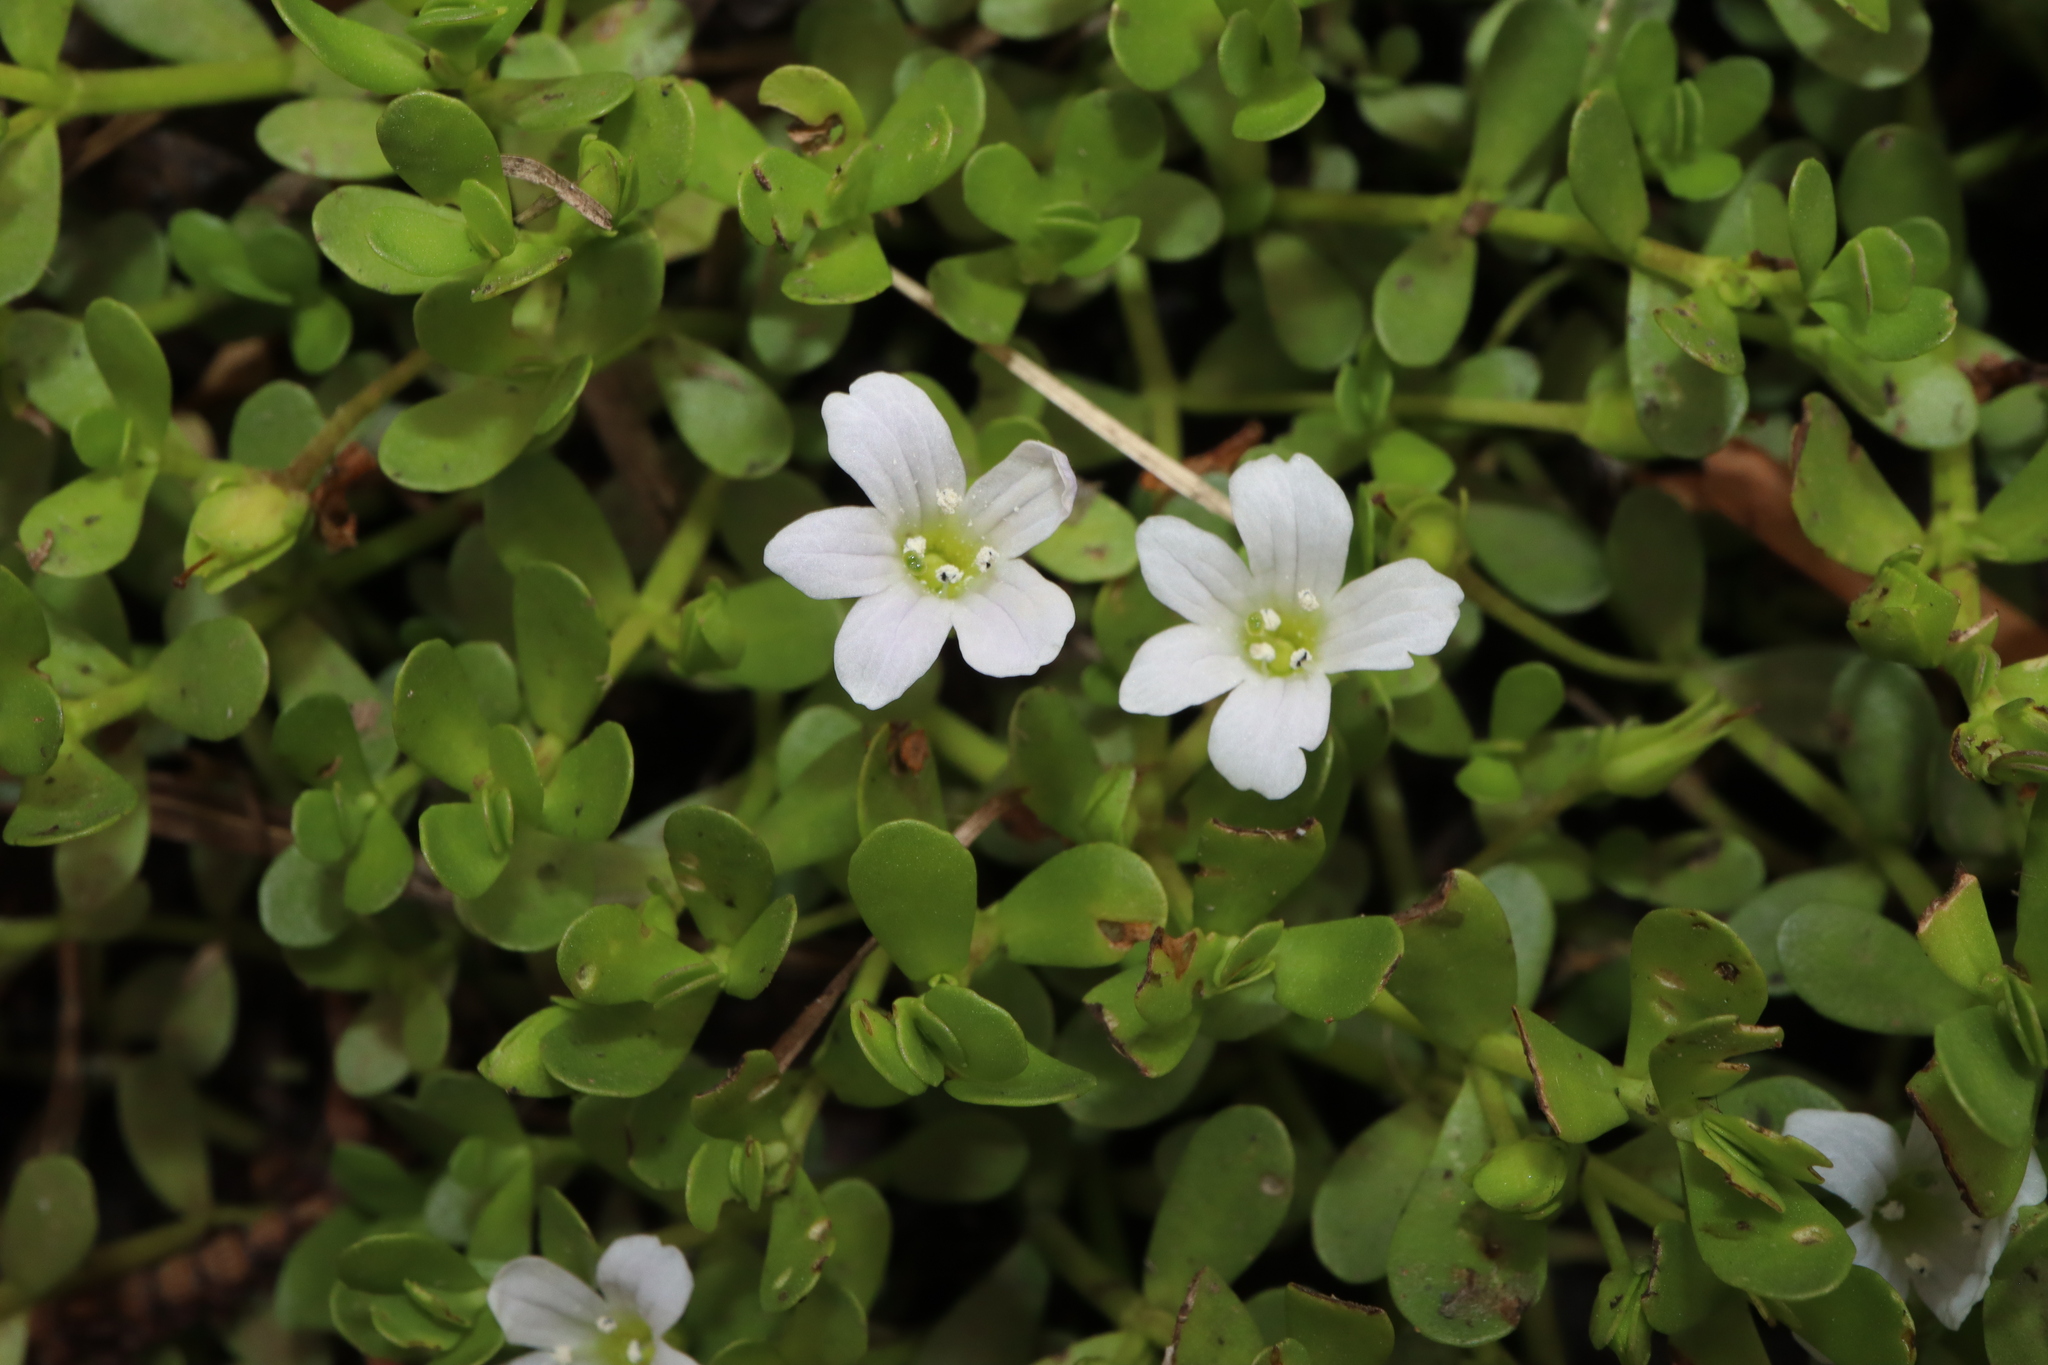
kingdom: Plantae
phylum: Tracheophyta
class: Magnoliopsida
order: Lamiales
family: Plantaginaceae
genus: Bacopa
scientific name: Bacopa monnieri
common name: Indian-pennywort
